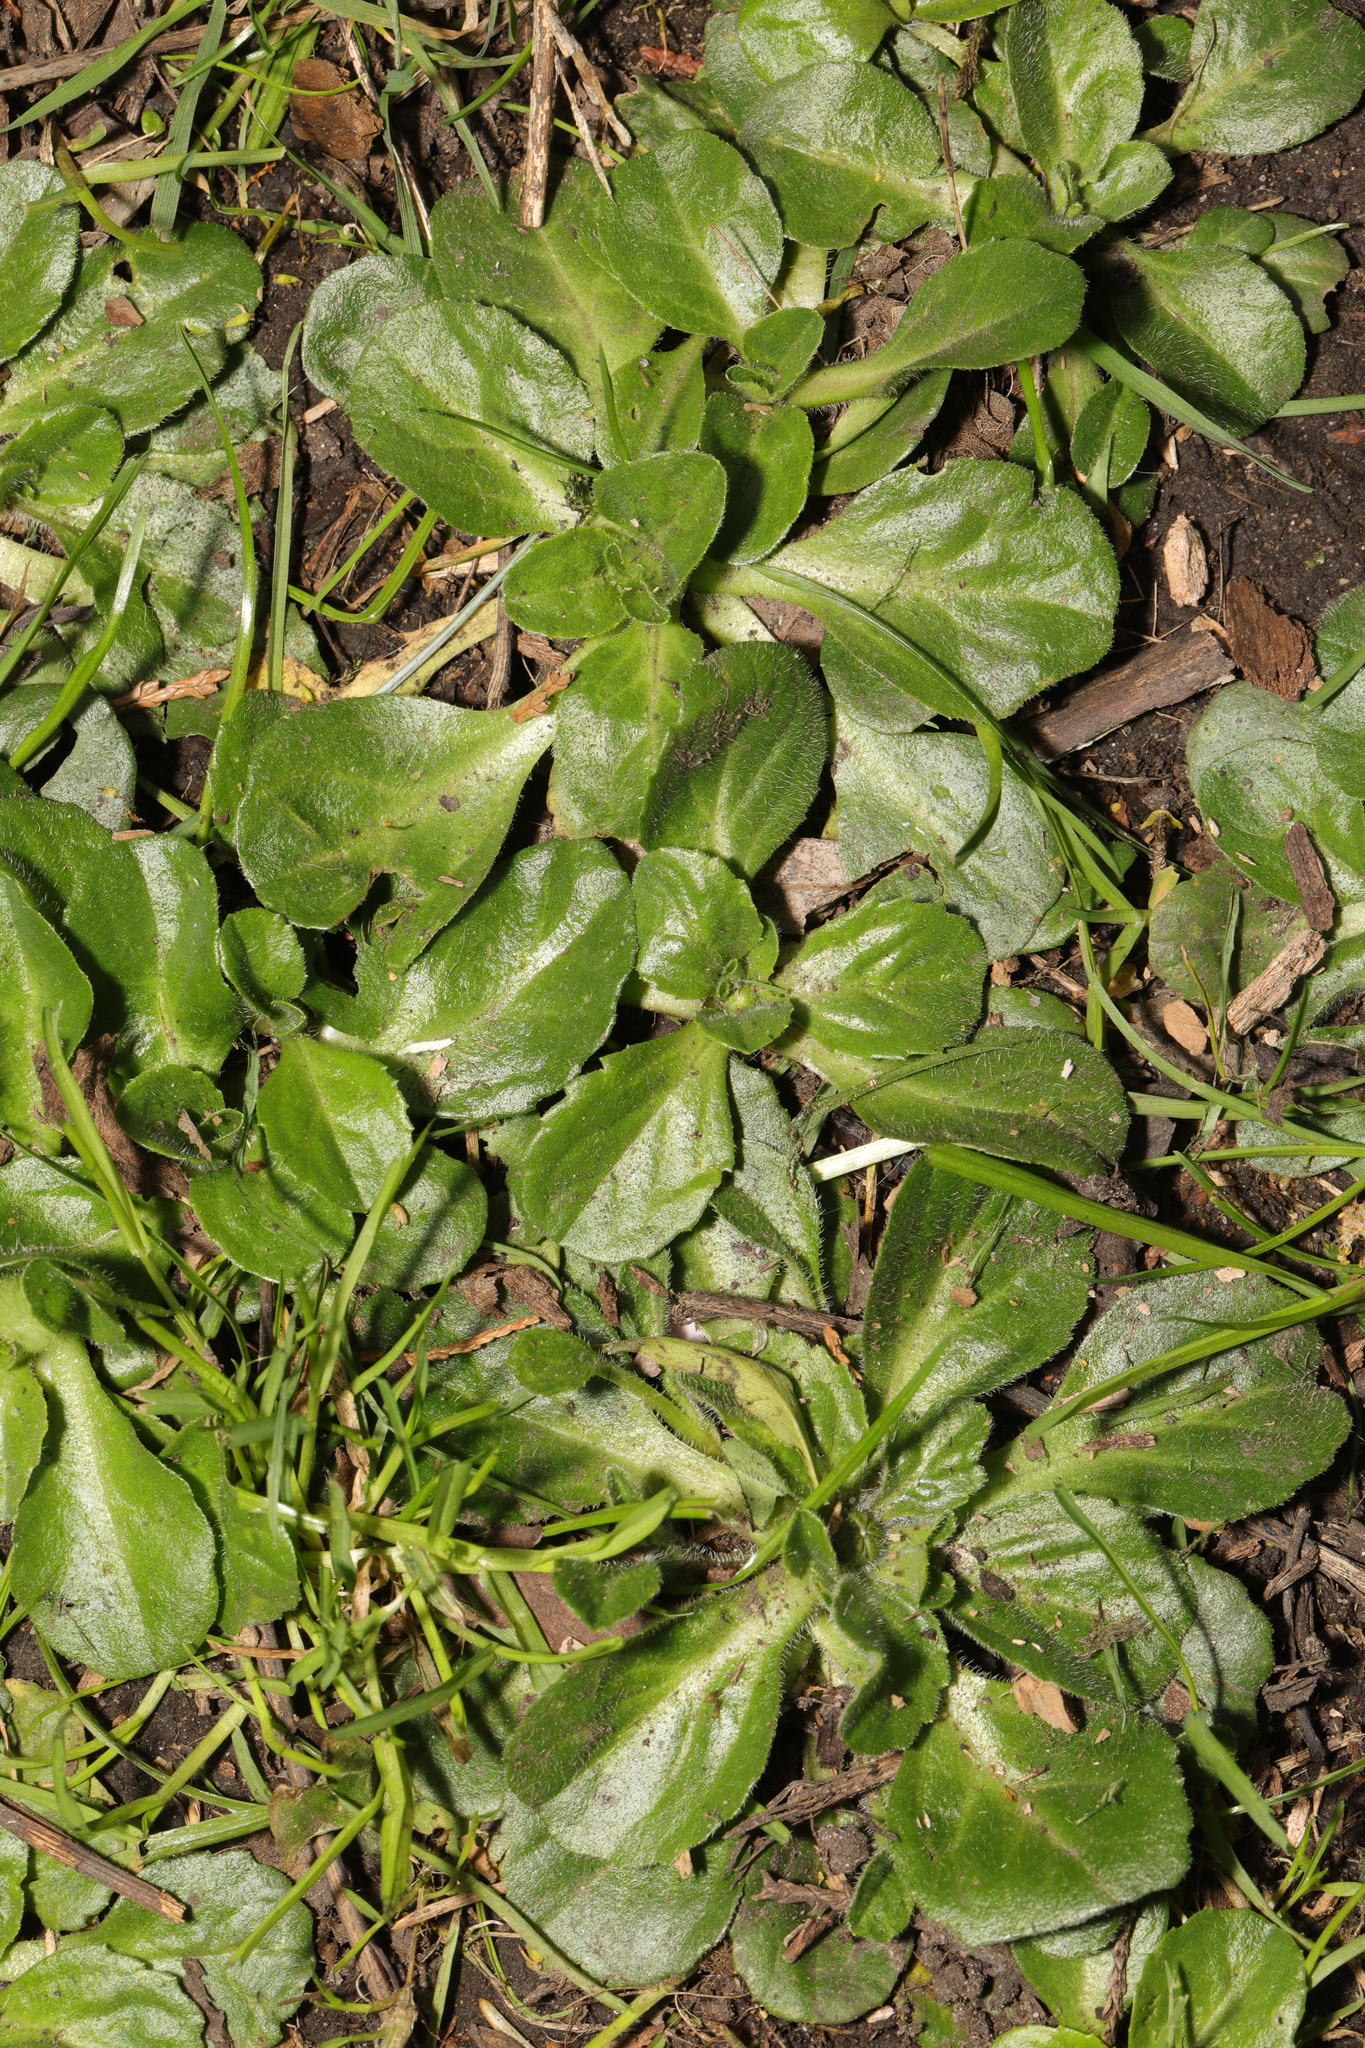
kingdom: Plantae
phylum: Tracheophyta
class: Magnoliopsida
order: Asterales
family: Asteraceae
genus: Bellis
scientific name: Bellis perennis
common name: Lawndaisy
